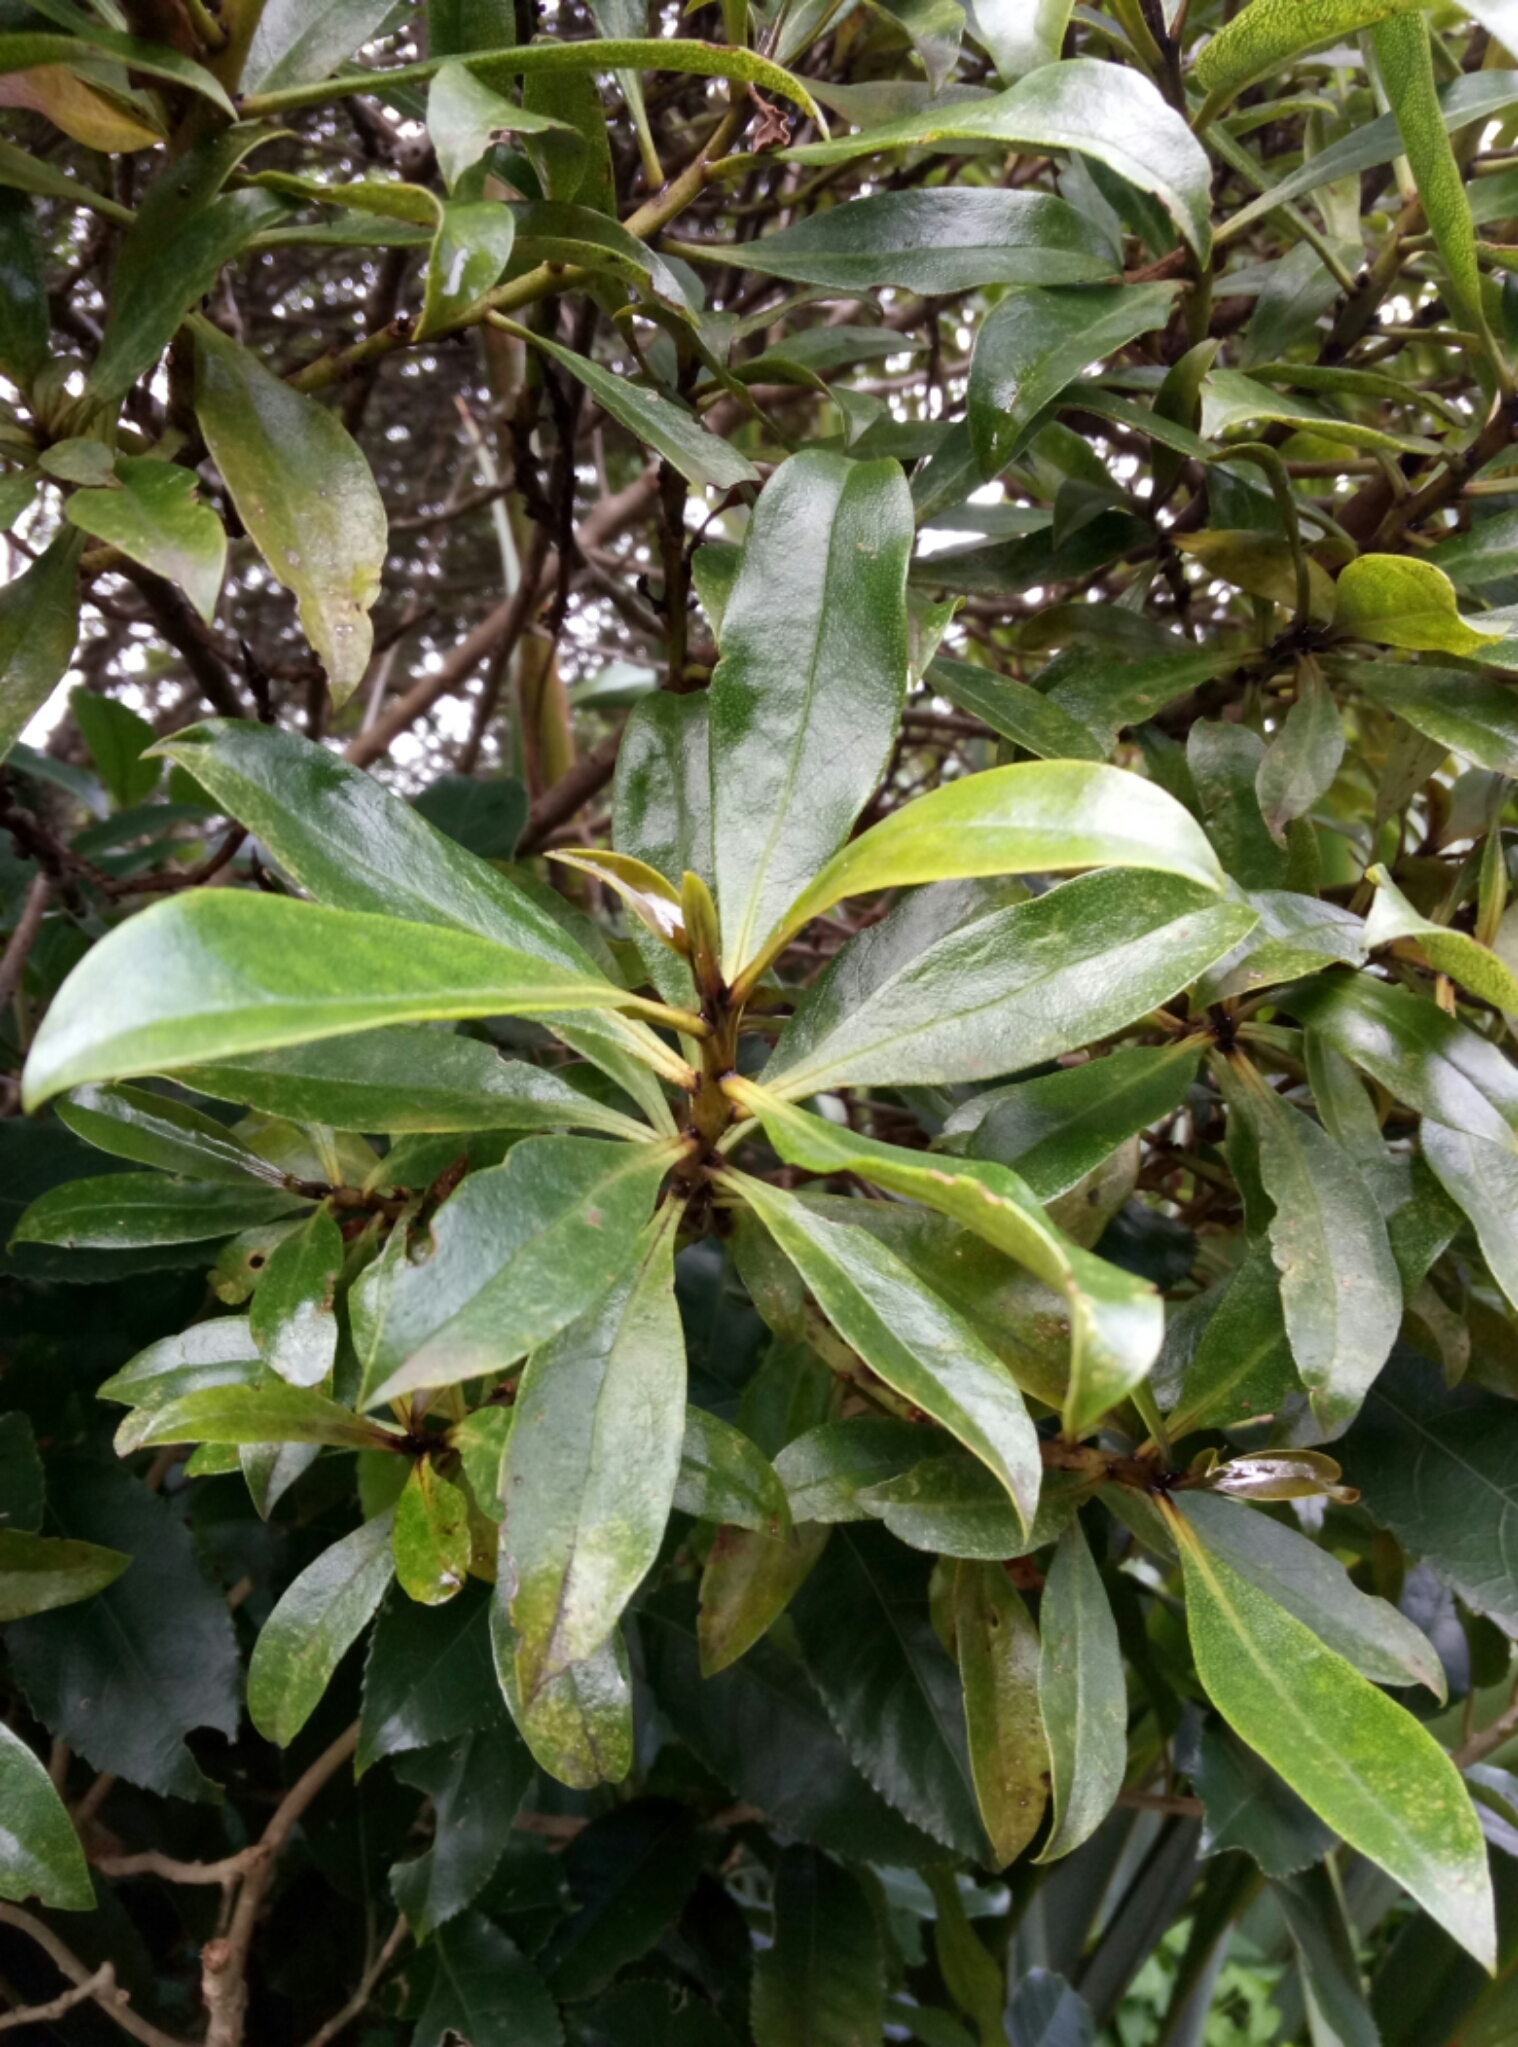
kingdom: Plantae
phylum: Tracheophyta
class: Magnoliopsida
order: Lamiales
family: Scrophulariaceae
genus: Myoporum
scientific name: Myoporum laetum
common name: Ngaio tree
